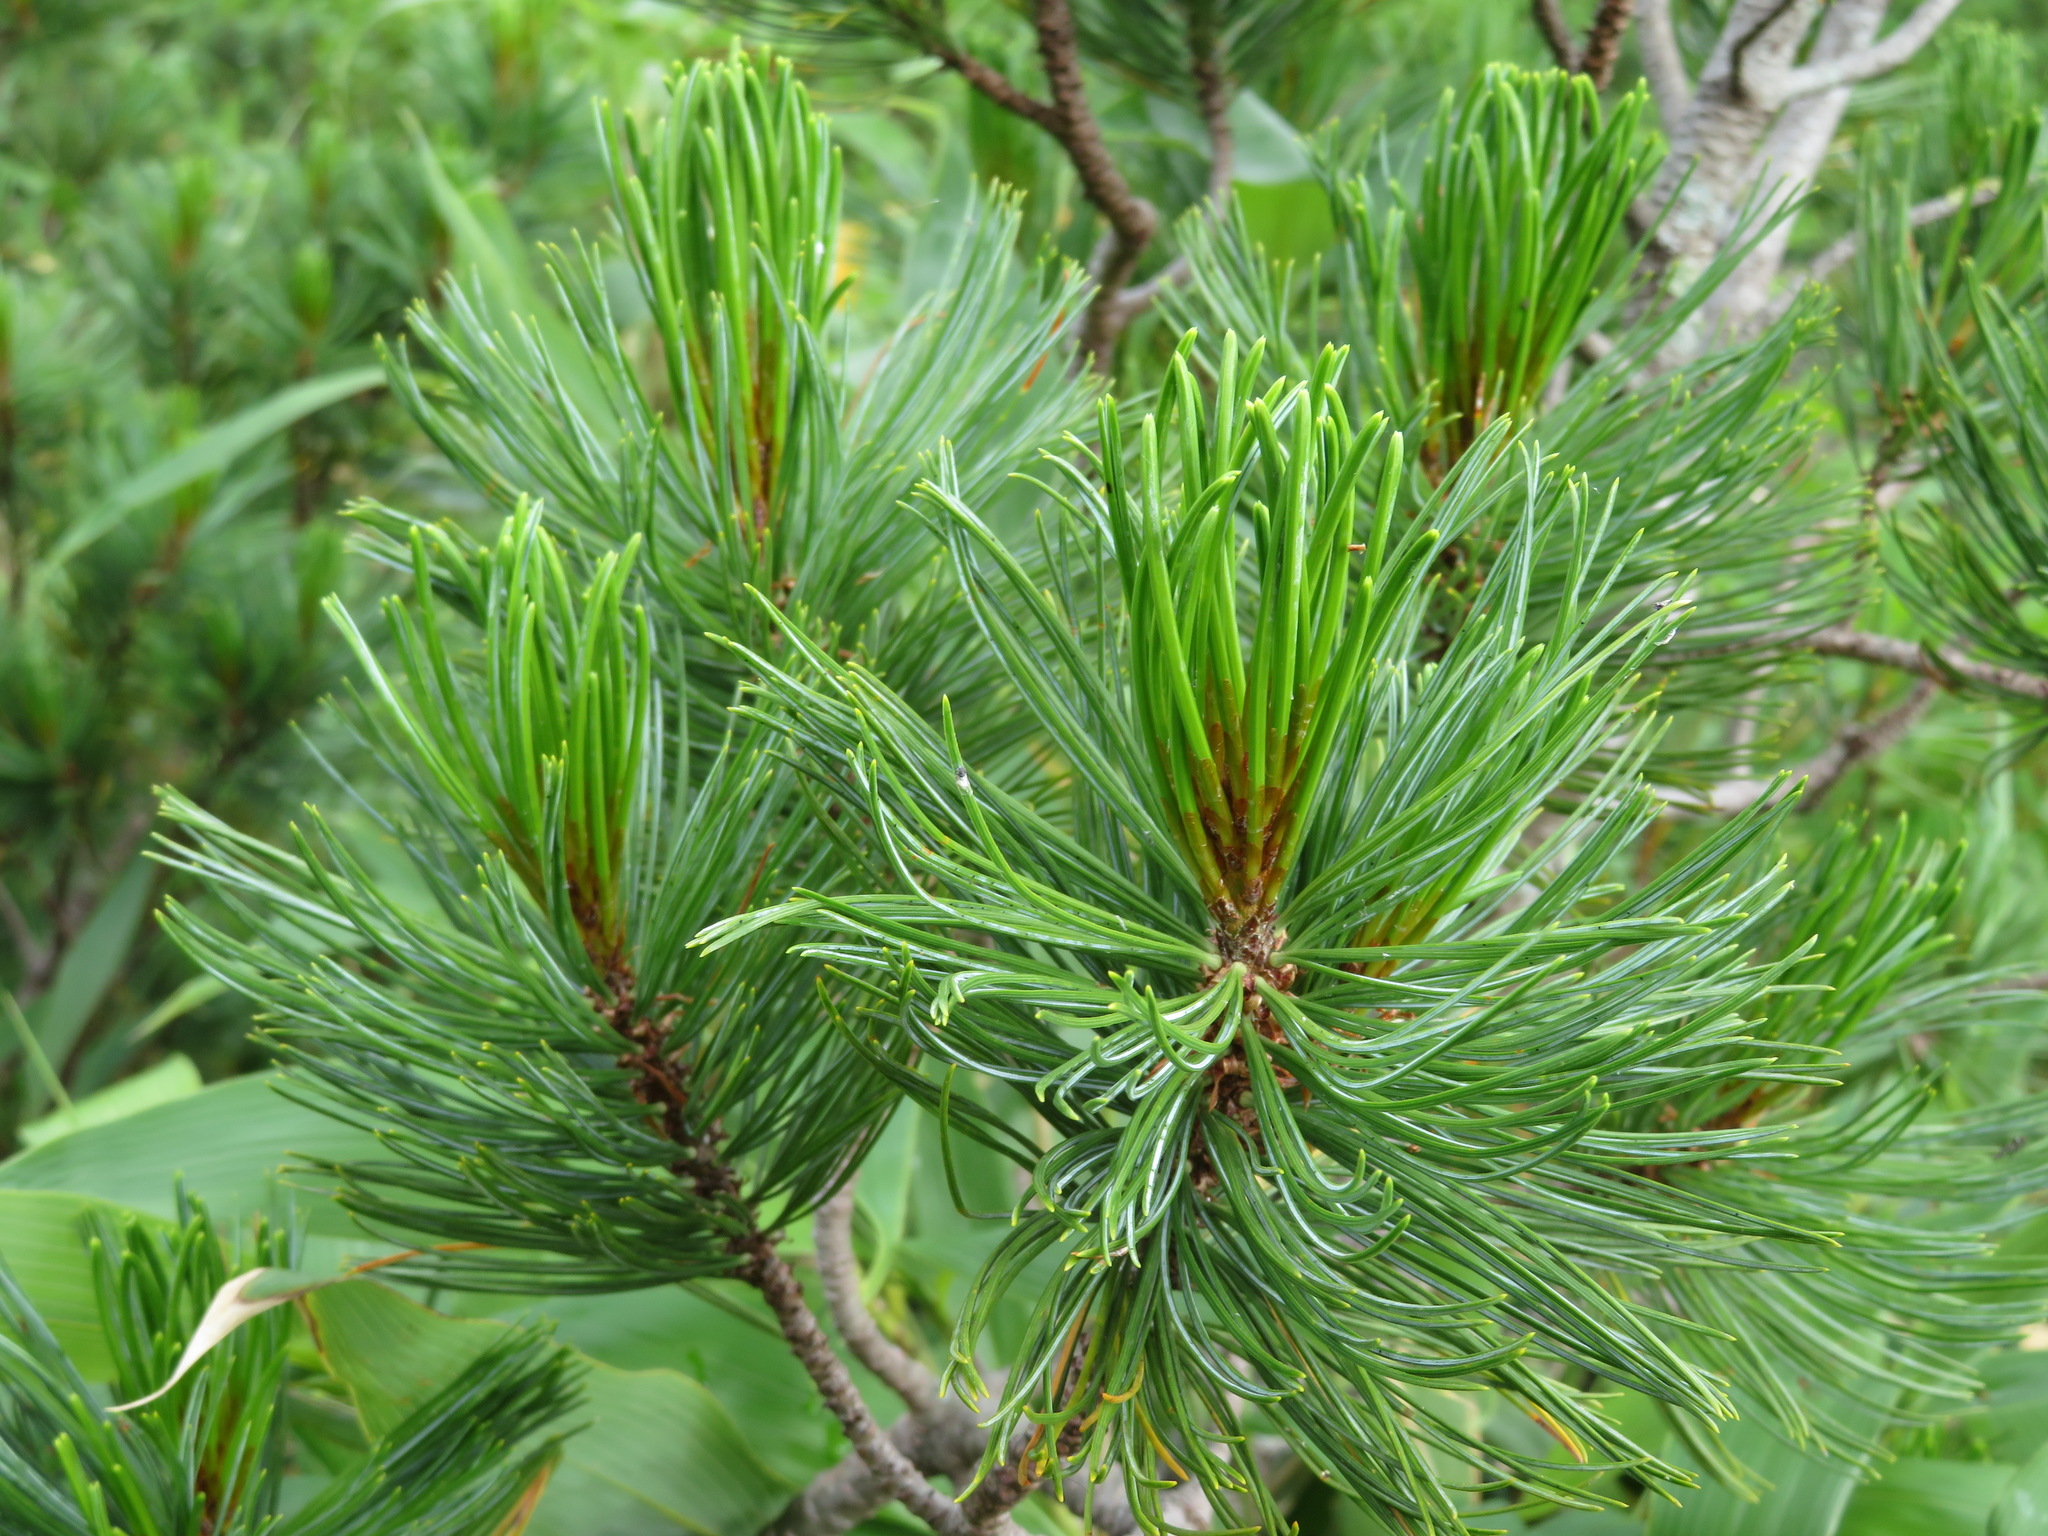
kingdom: Plantae
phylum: Tracheophyta
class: Pinopsida
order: Pinales
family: Pinaceae
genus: Pinus
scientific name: Pinus pumila
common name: Dwarf siberian pine
